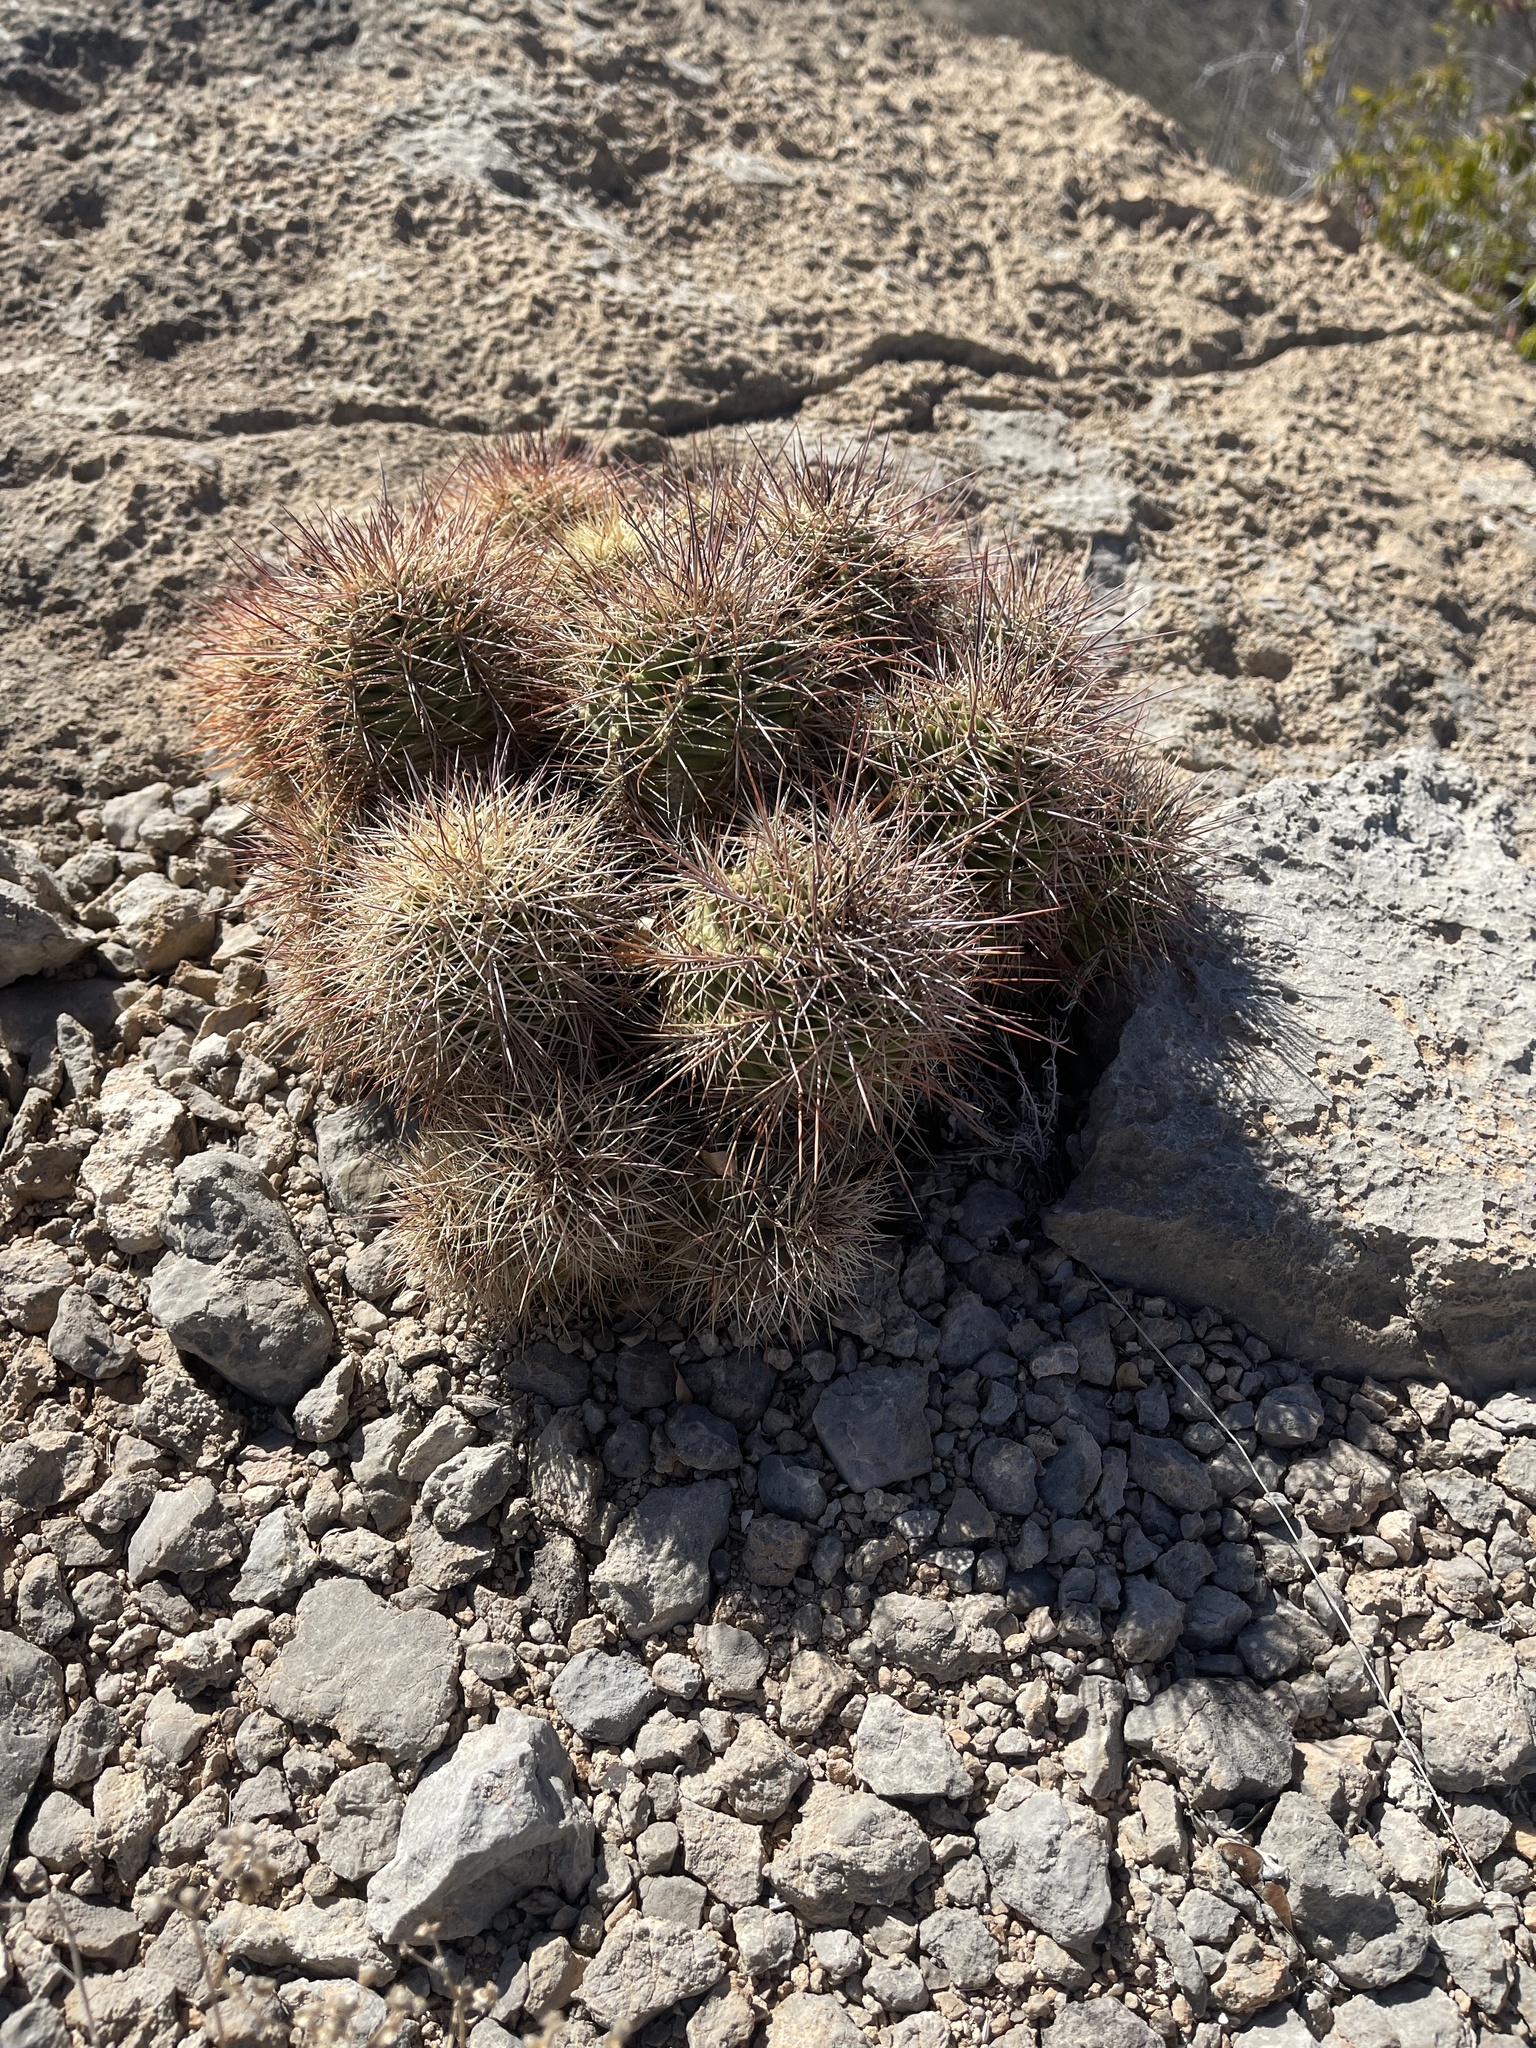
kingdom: Plantae
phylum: Tracheophyta
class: Magnoliopsida
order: Caryophyllales
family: Cactaceae
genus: Echinocereus
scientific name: Echinocereus coccineus
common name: Scarlet hedgehog cactus
